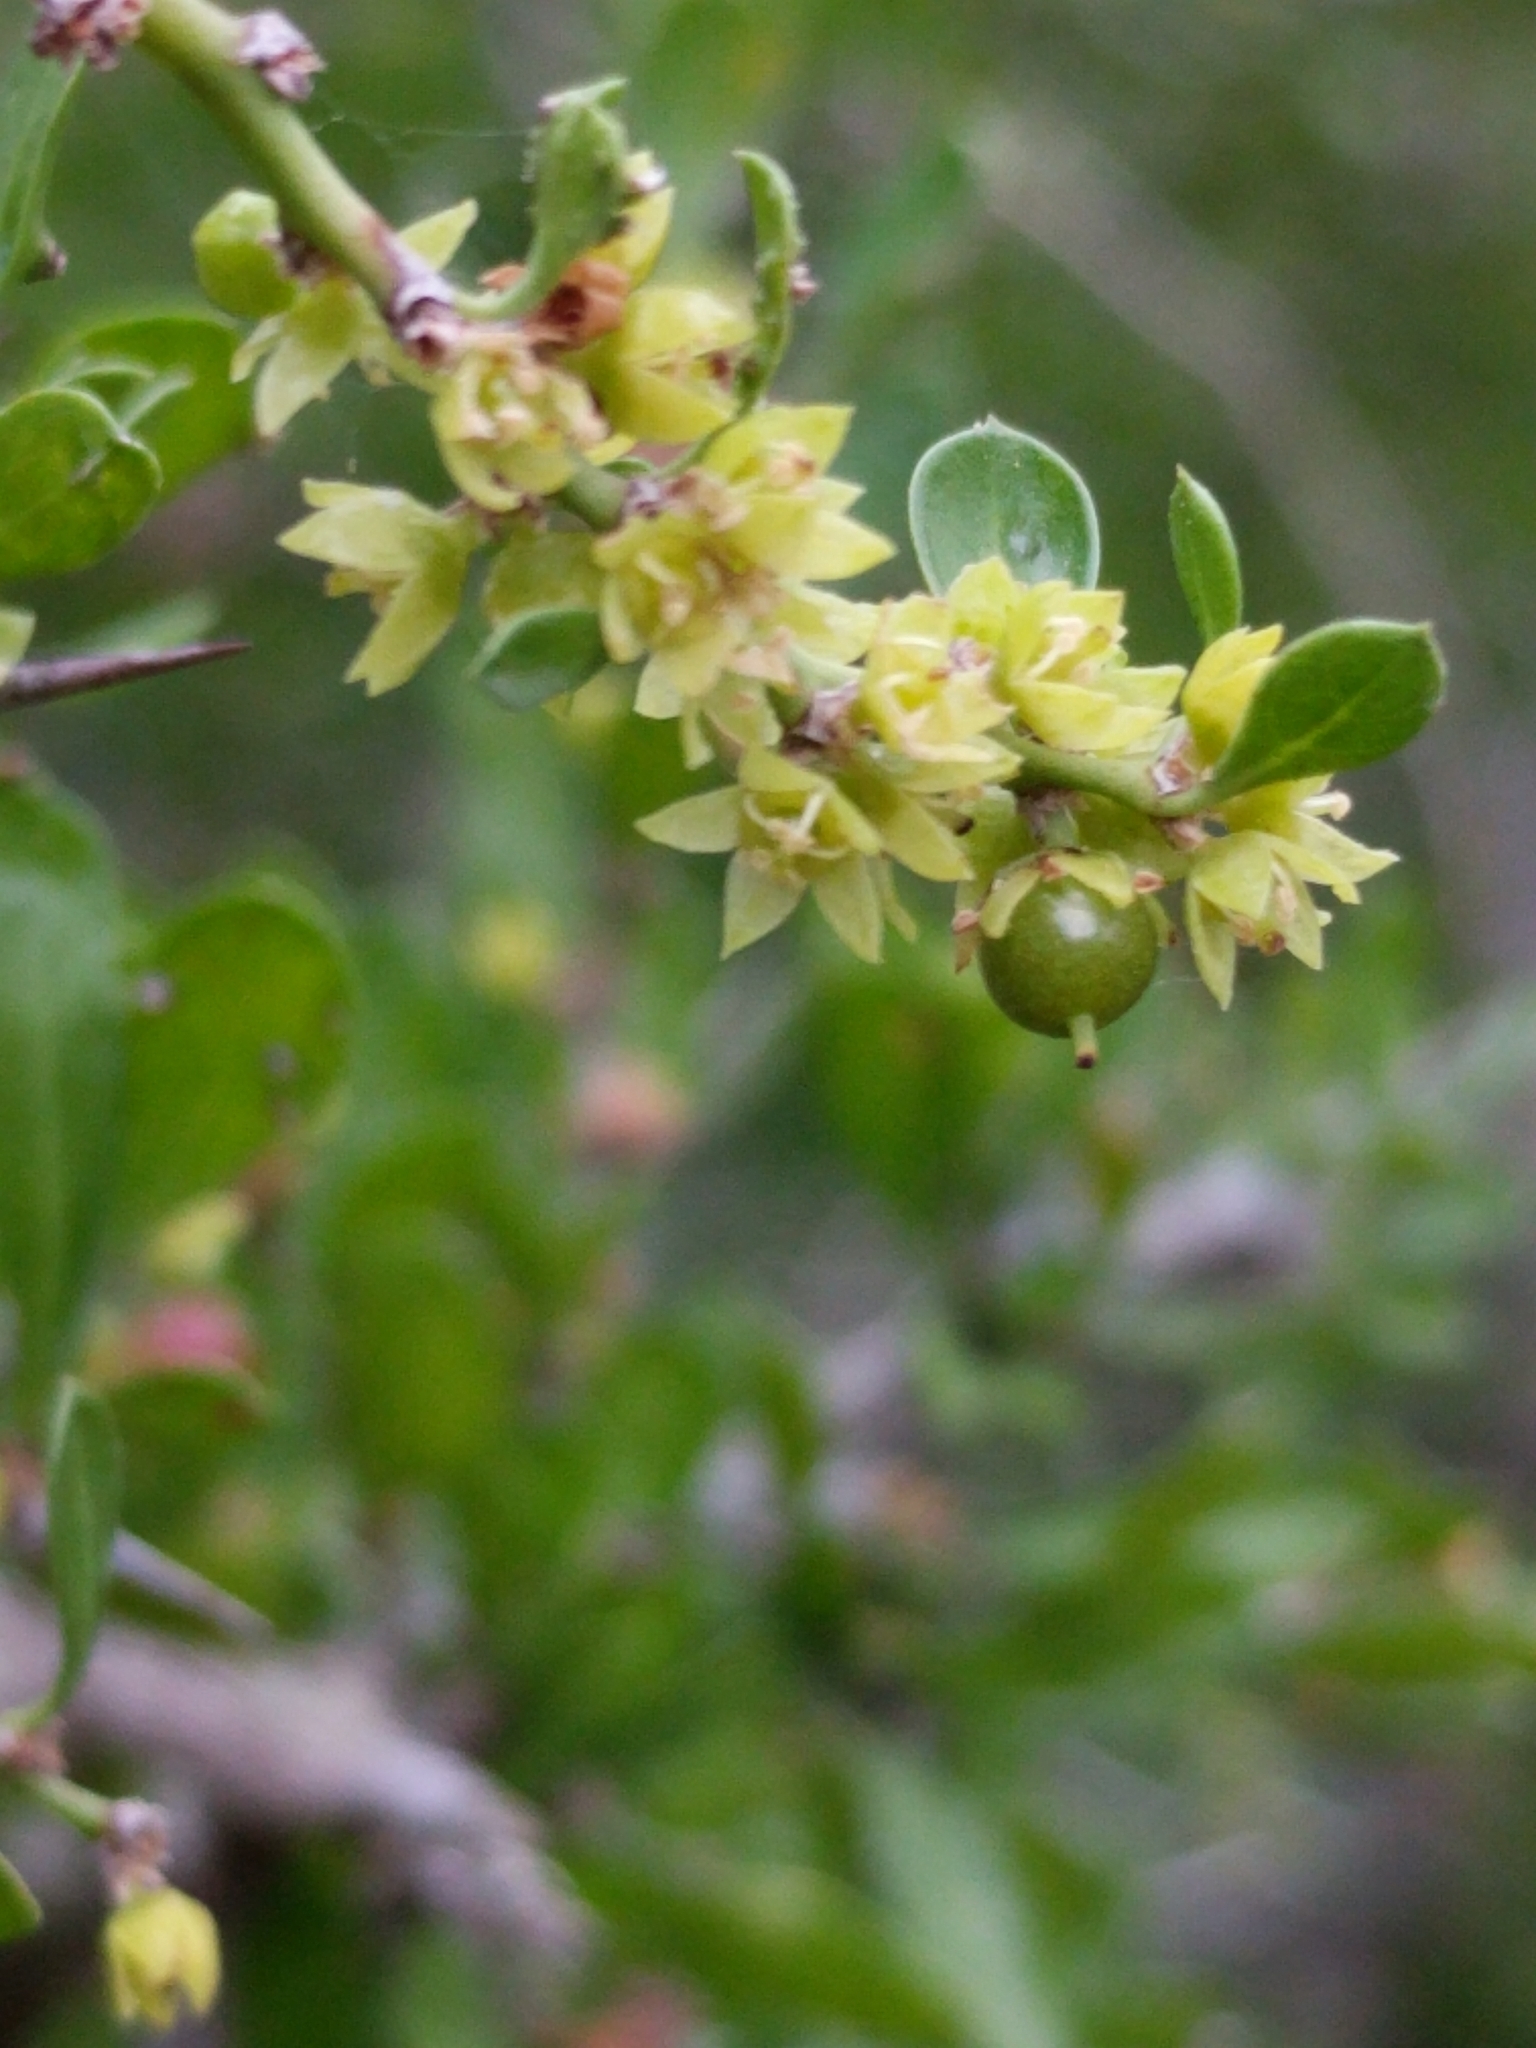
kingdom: Plantae
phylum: Tracheophyta
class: Magnoliopsida
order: Rosales
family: Rhamnaceae
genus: Condalia
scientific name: Condalia hookeri
